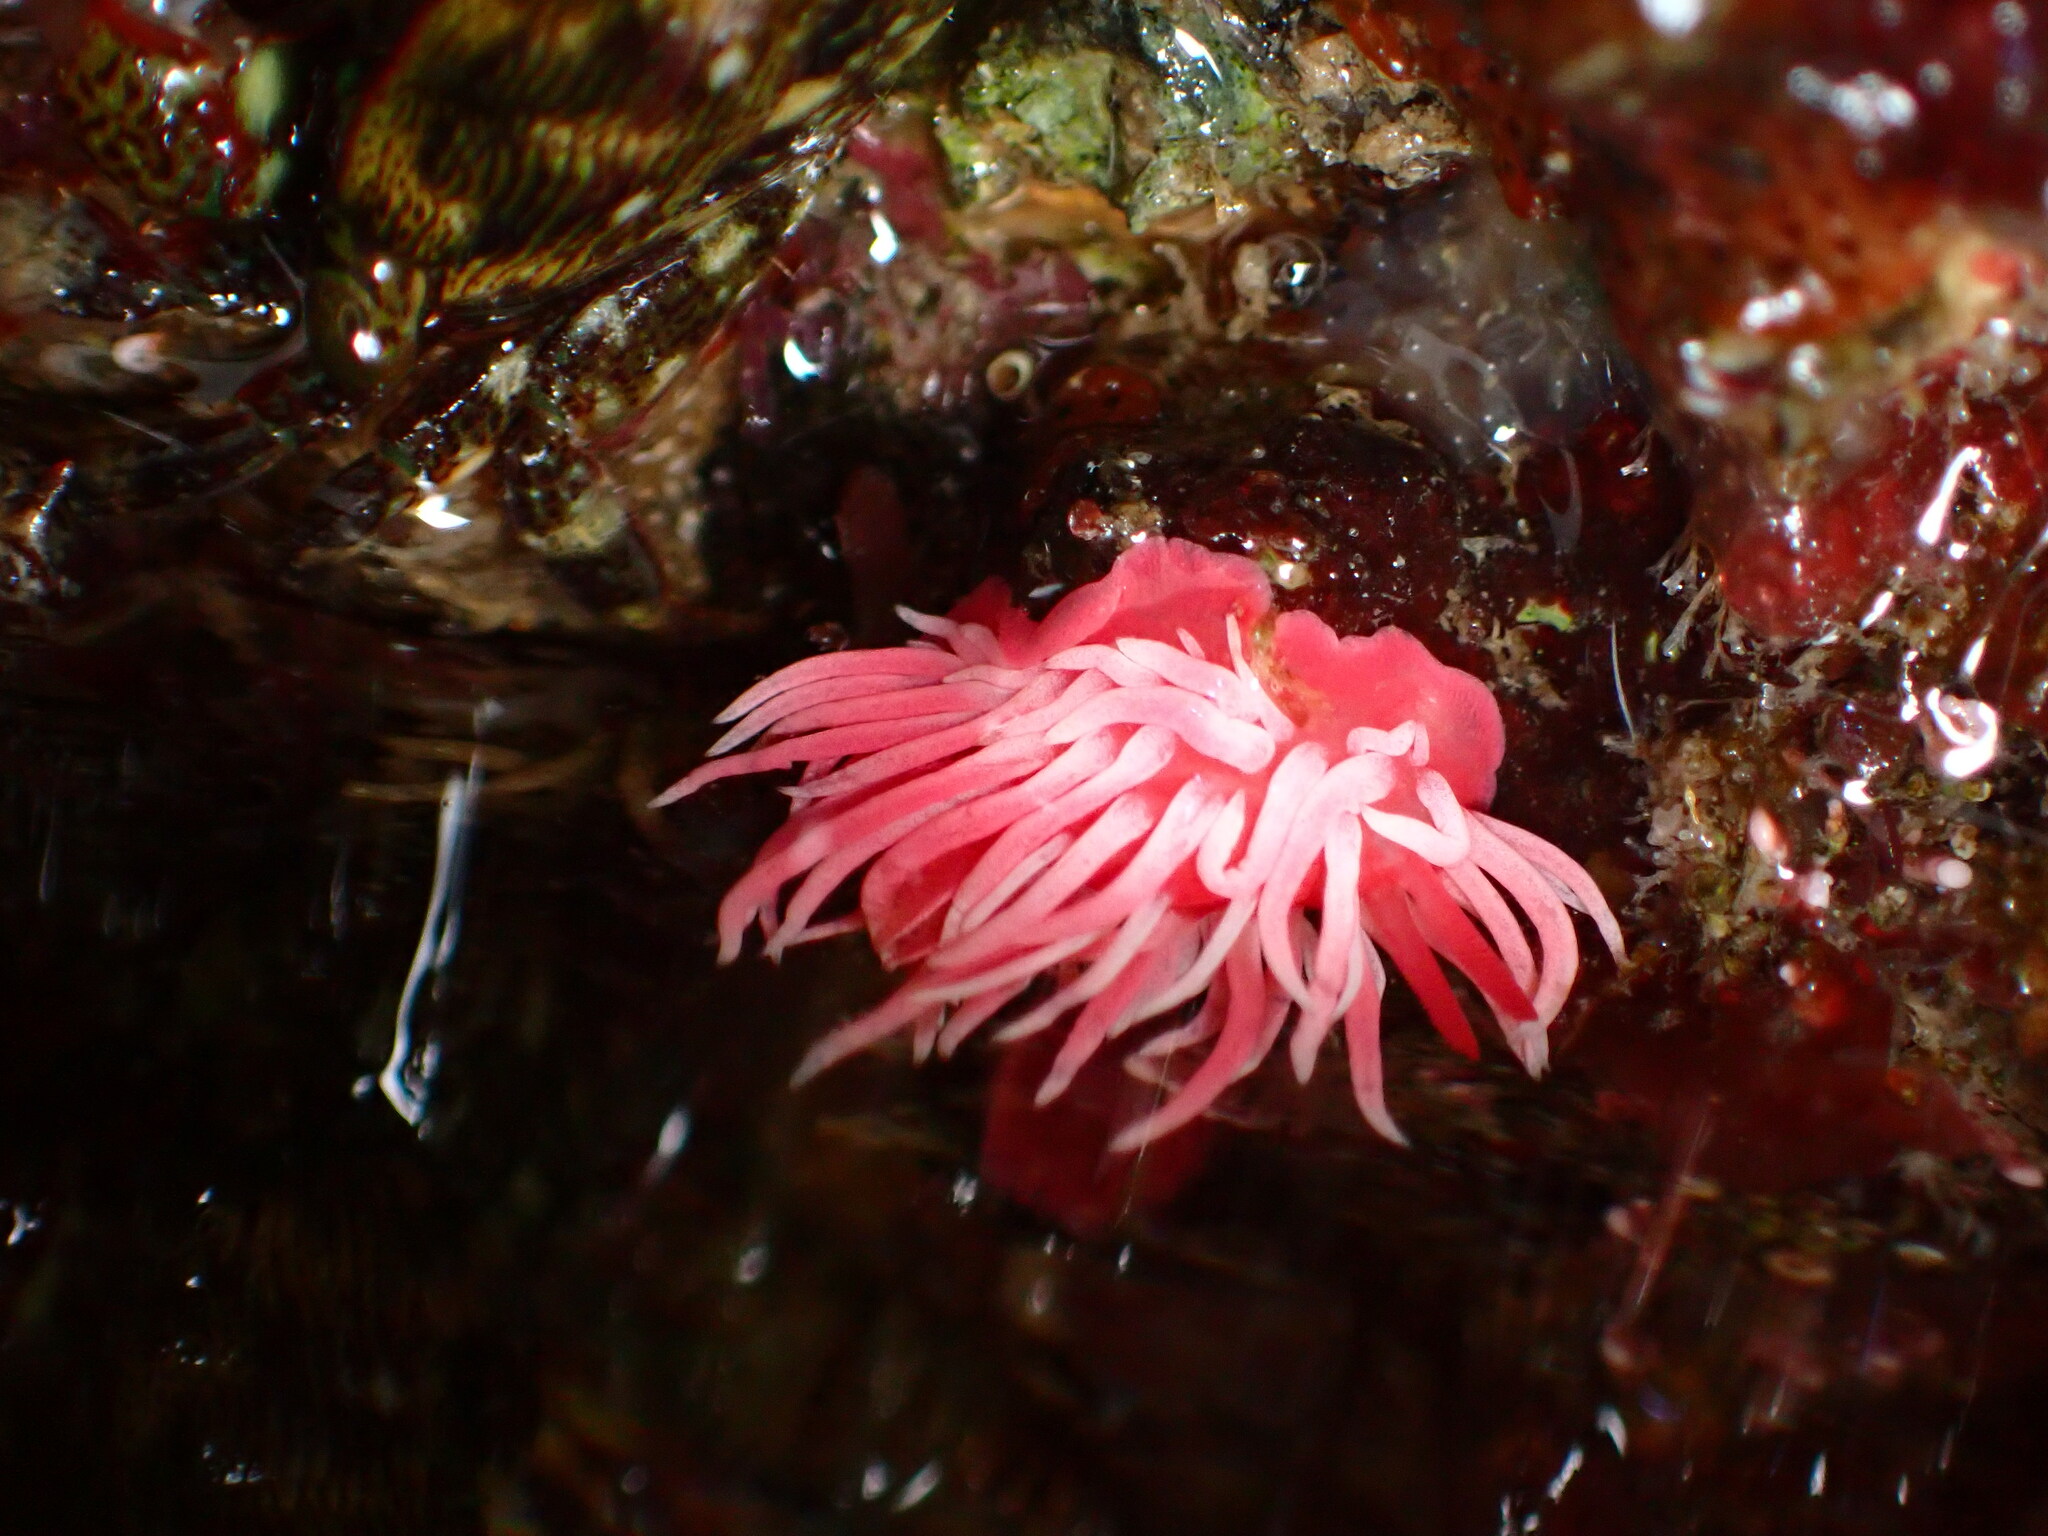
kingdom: Animalia
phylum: Mollusca
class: Gastropoda
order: Nudibranchia
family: Goniodorididae
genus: Okenia
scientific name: Okenia
